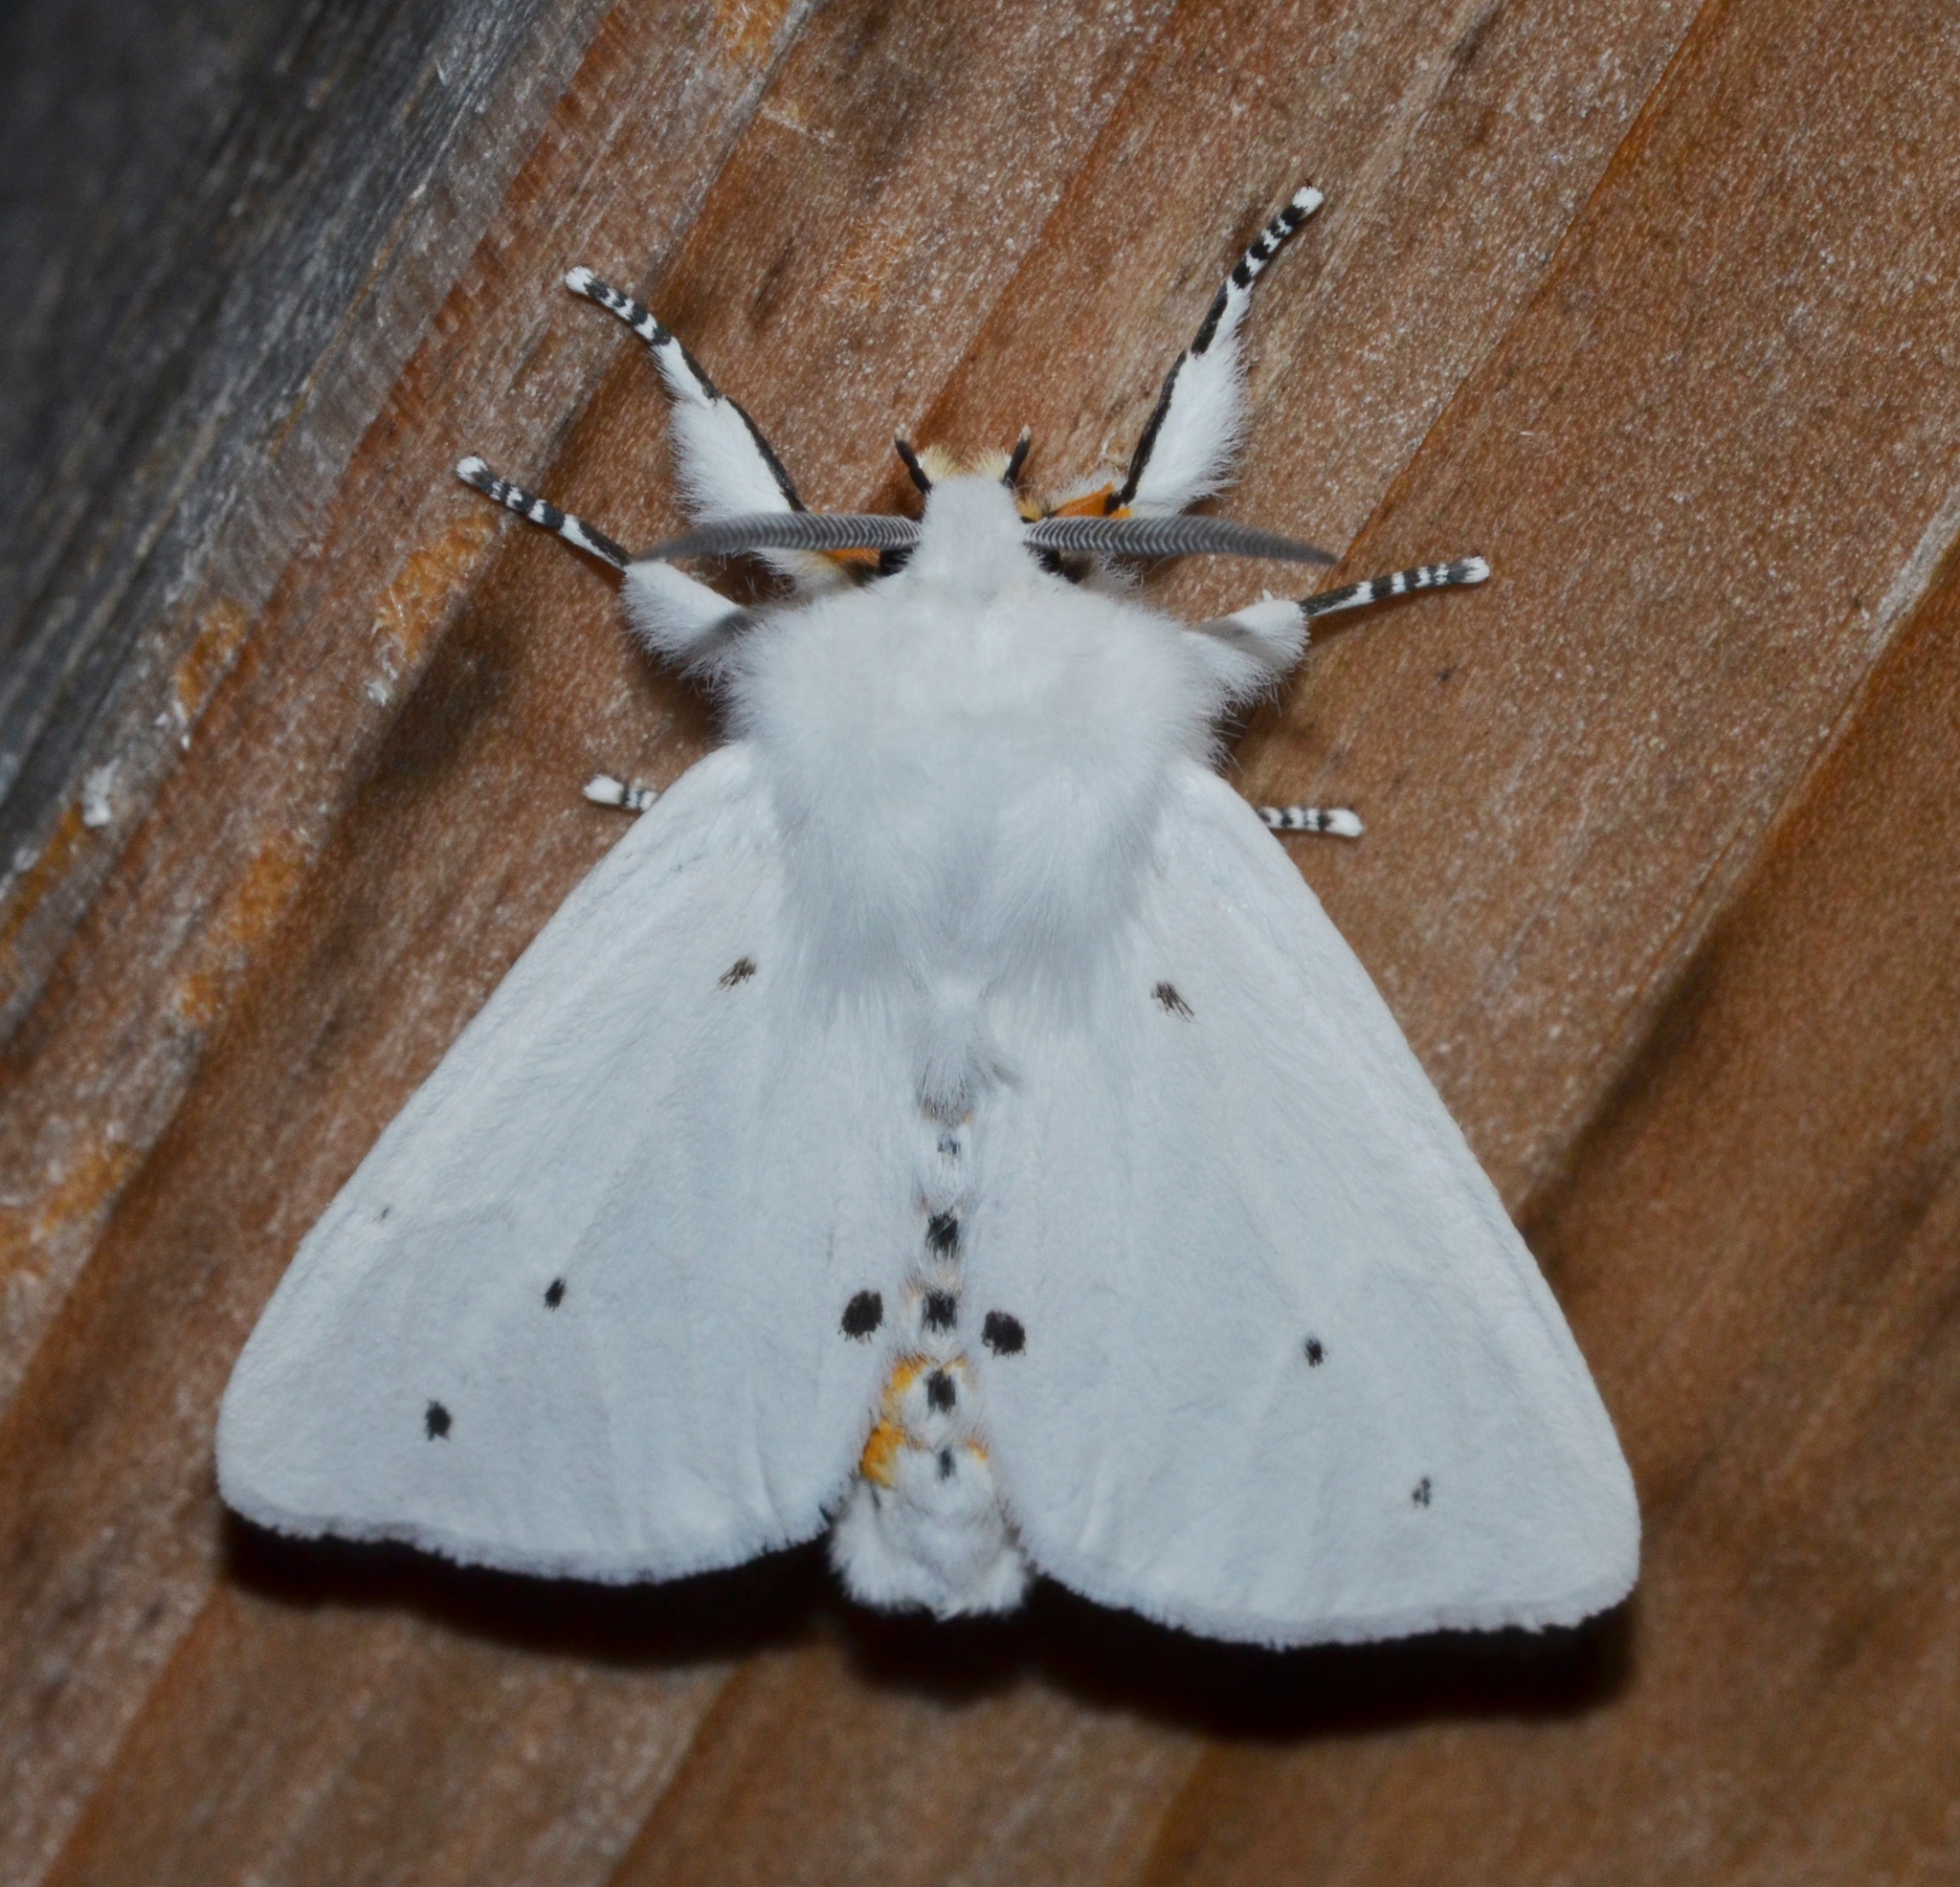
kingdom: Animalia
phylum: Arthropoda
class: Insecta
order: Lepidoptera
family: Erebidae
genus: Spilosoma
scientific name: Spilosoma virginica
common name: Virginia tiger moth
